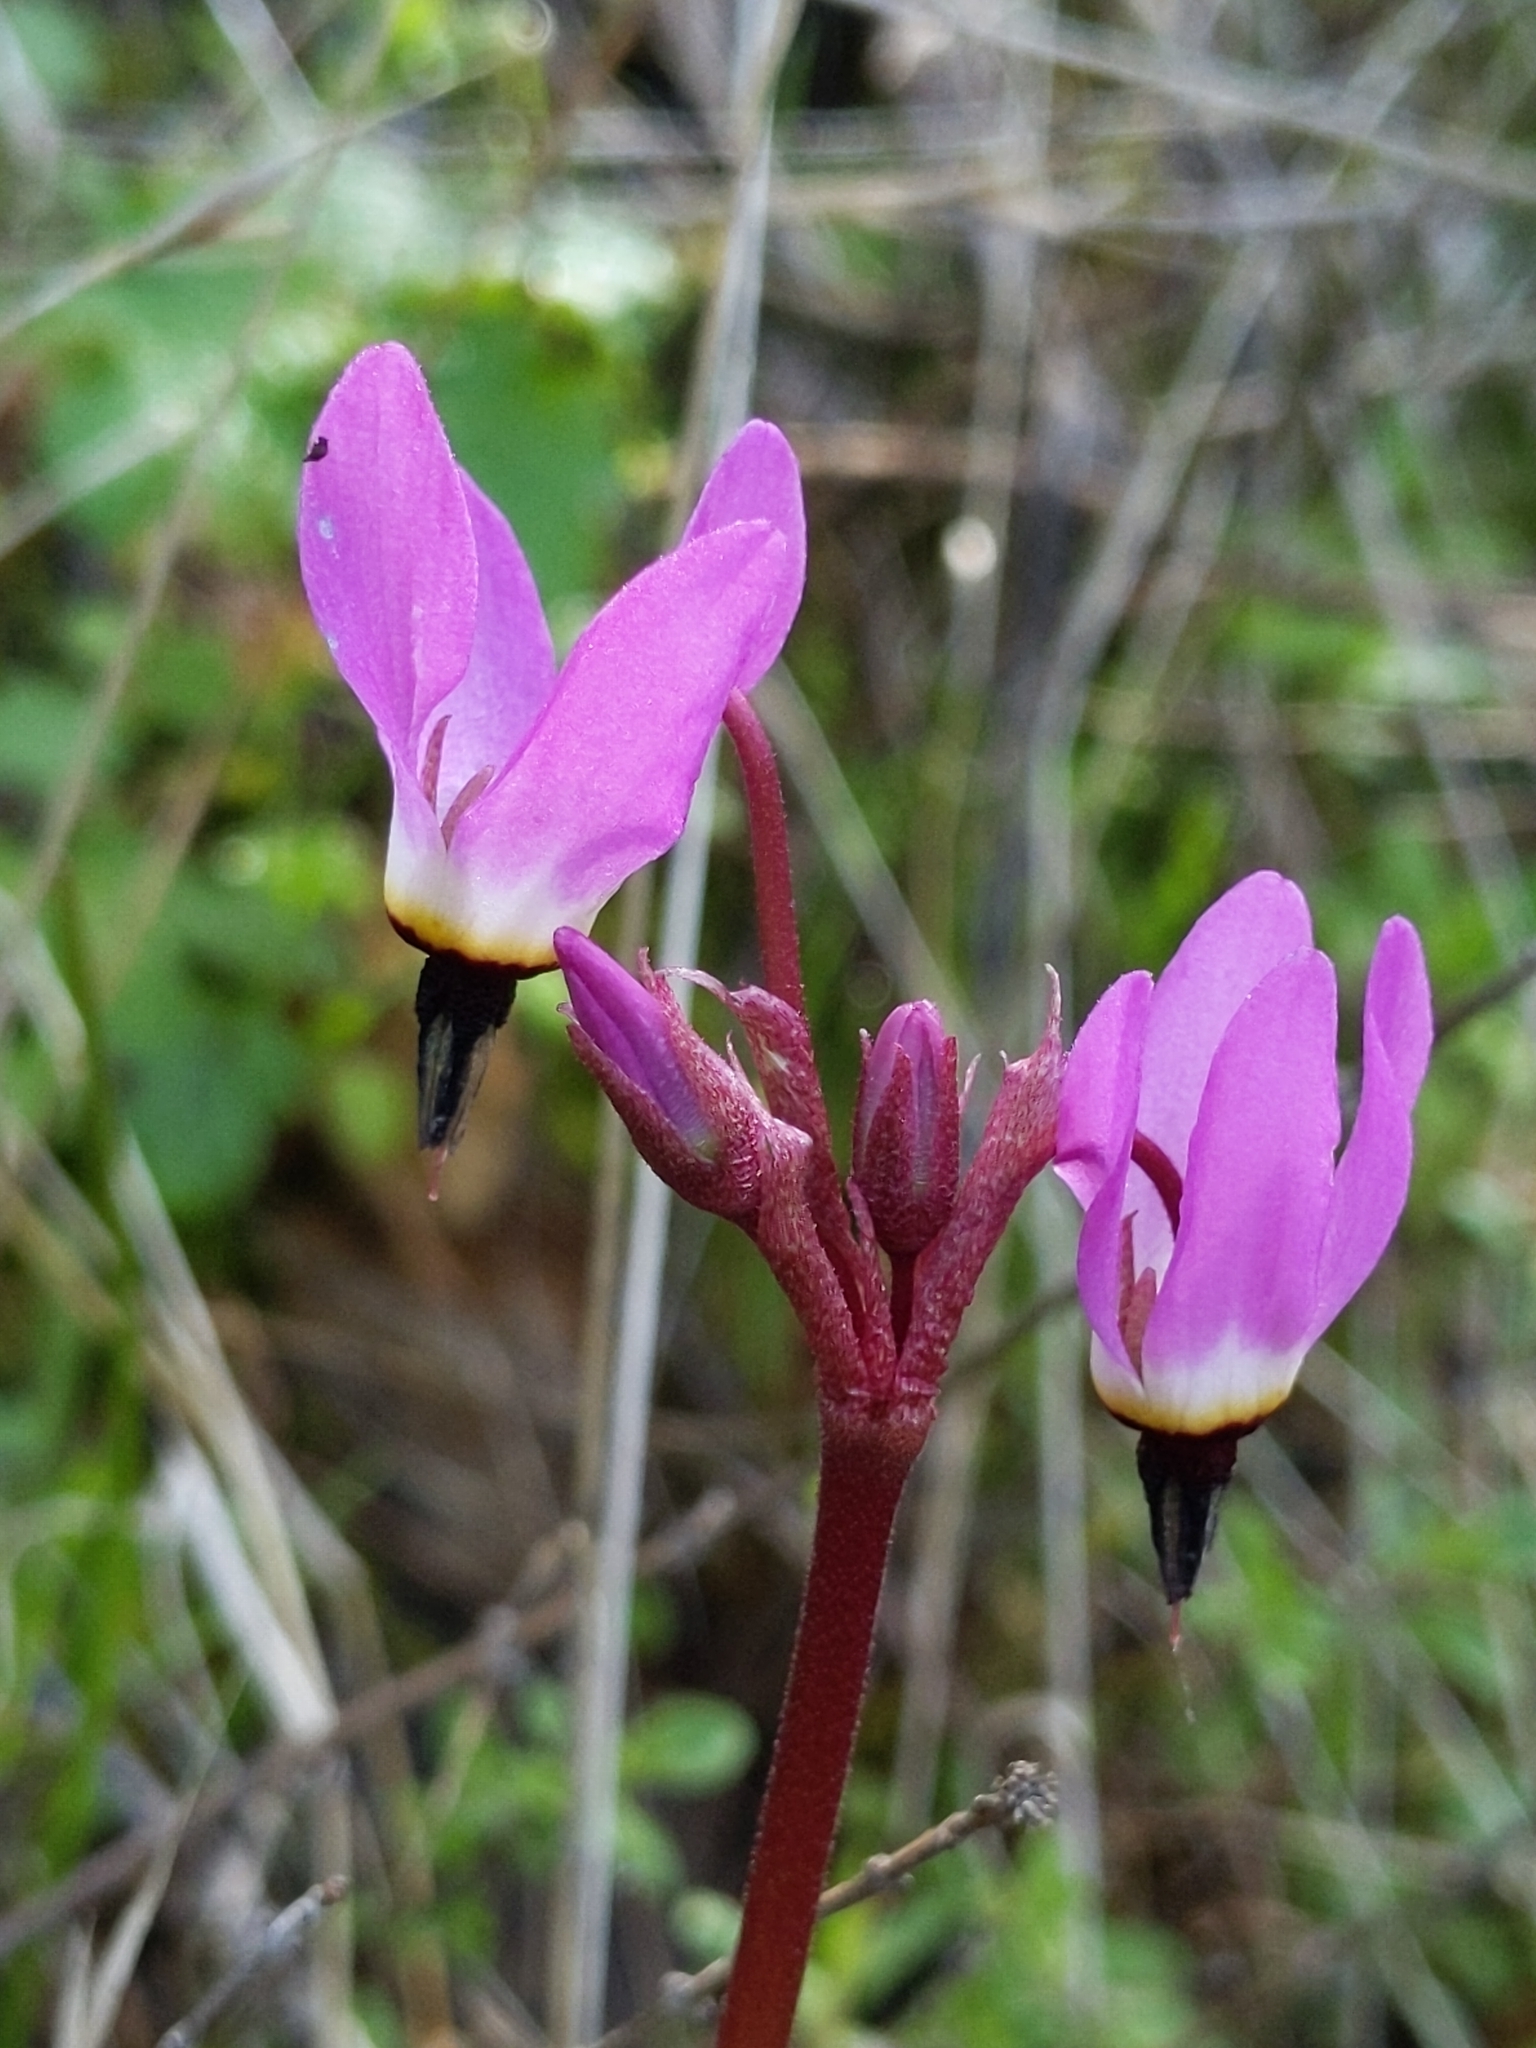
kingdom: Plantae
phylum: Tracheophyta
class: Magnoliopsida
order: Ericales
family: Primulaceae
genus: Dodecatheon
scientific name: Dodecatheon hendersonii
